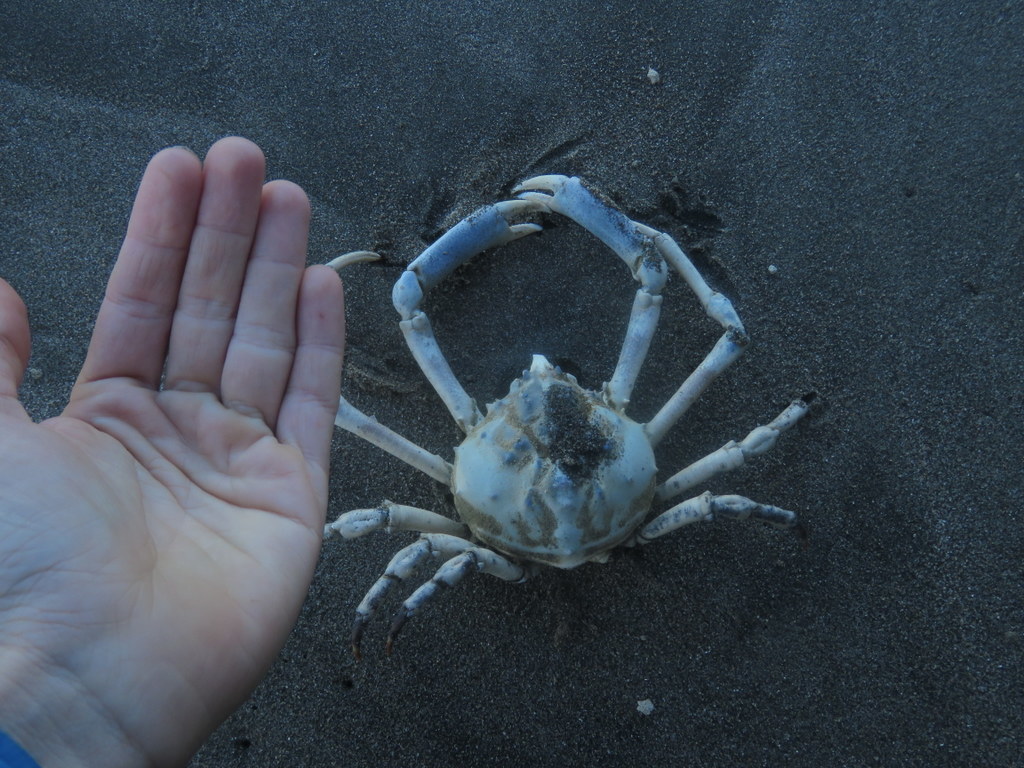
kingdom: Animalia
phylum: Arthropoda
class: Malacostraca
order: Decapoda
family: Epialtidae
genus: Libinia
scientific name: Libinia spinosa
